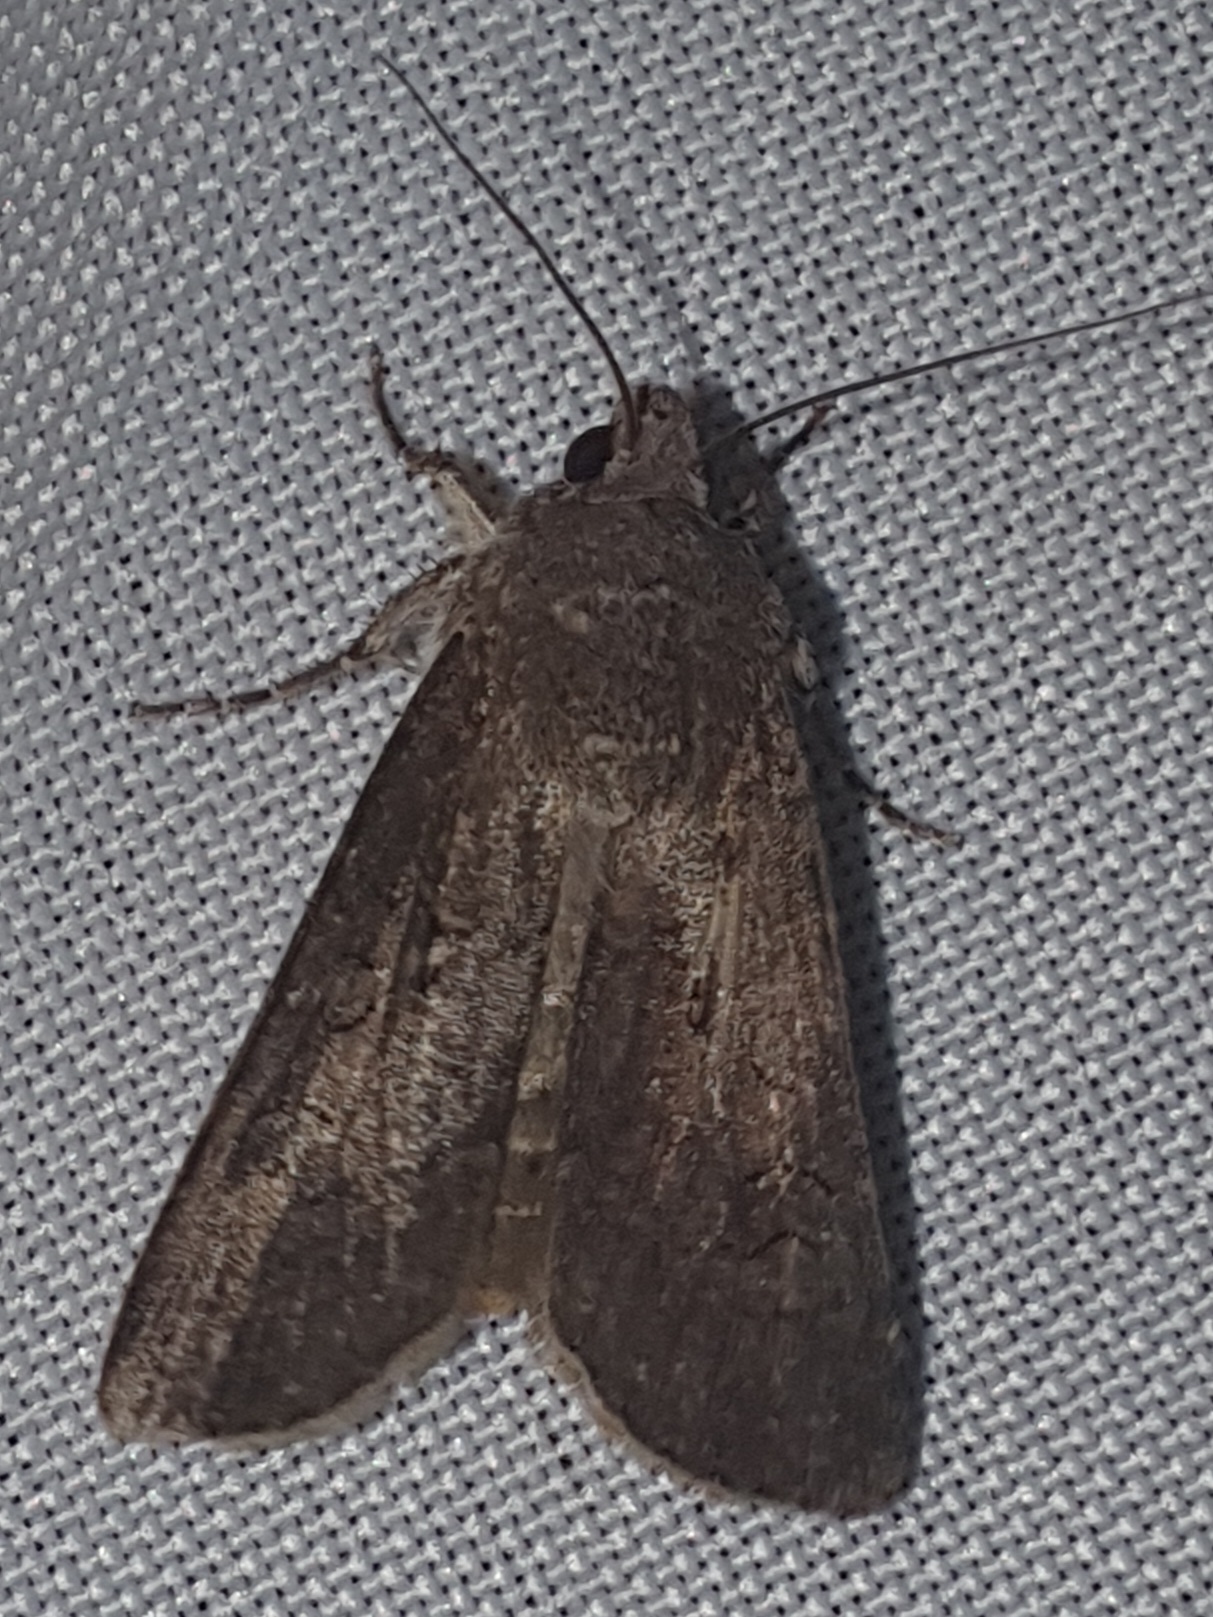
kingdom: Animalia
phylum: Arthropoda
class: Insecta
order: Lepidoptera
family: Noctuidae
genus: Agrotis
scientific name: Agrotis segetum
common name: Turnip moth
